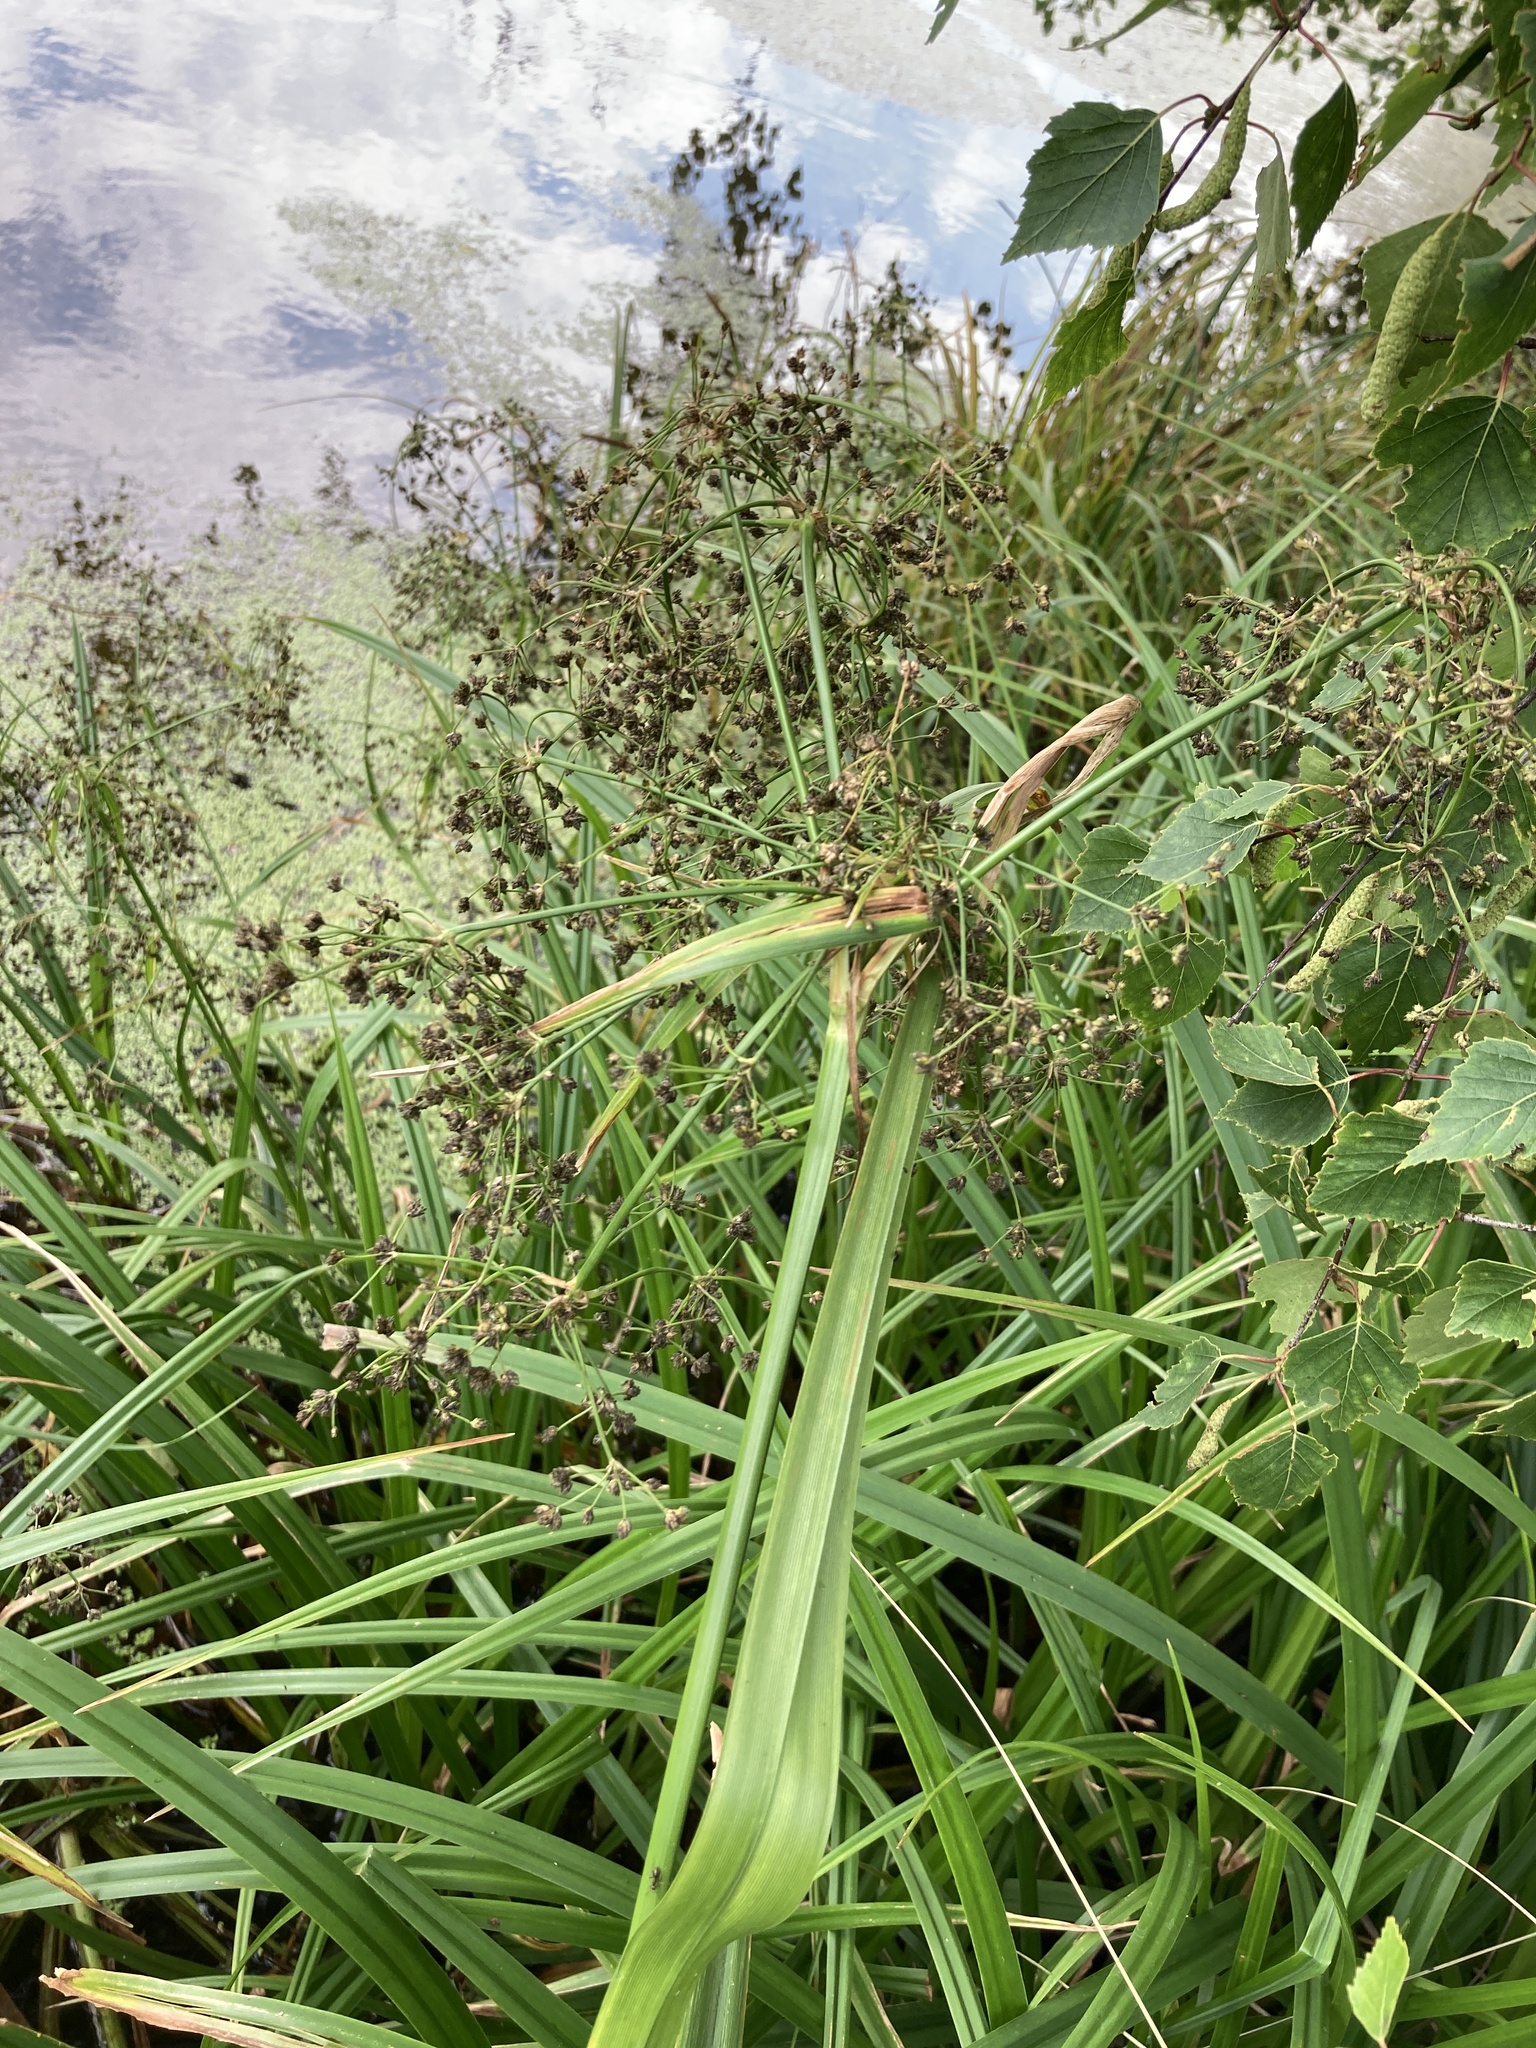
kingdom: Plantae
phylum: Tracheophyta
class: Liliopsida
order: Poales
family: Cyperaceae
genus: Scirpus
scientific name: Scirpus sylvaticus
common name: Wood club-rush
